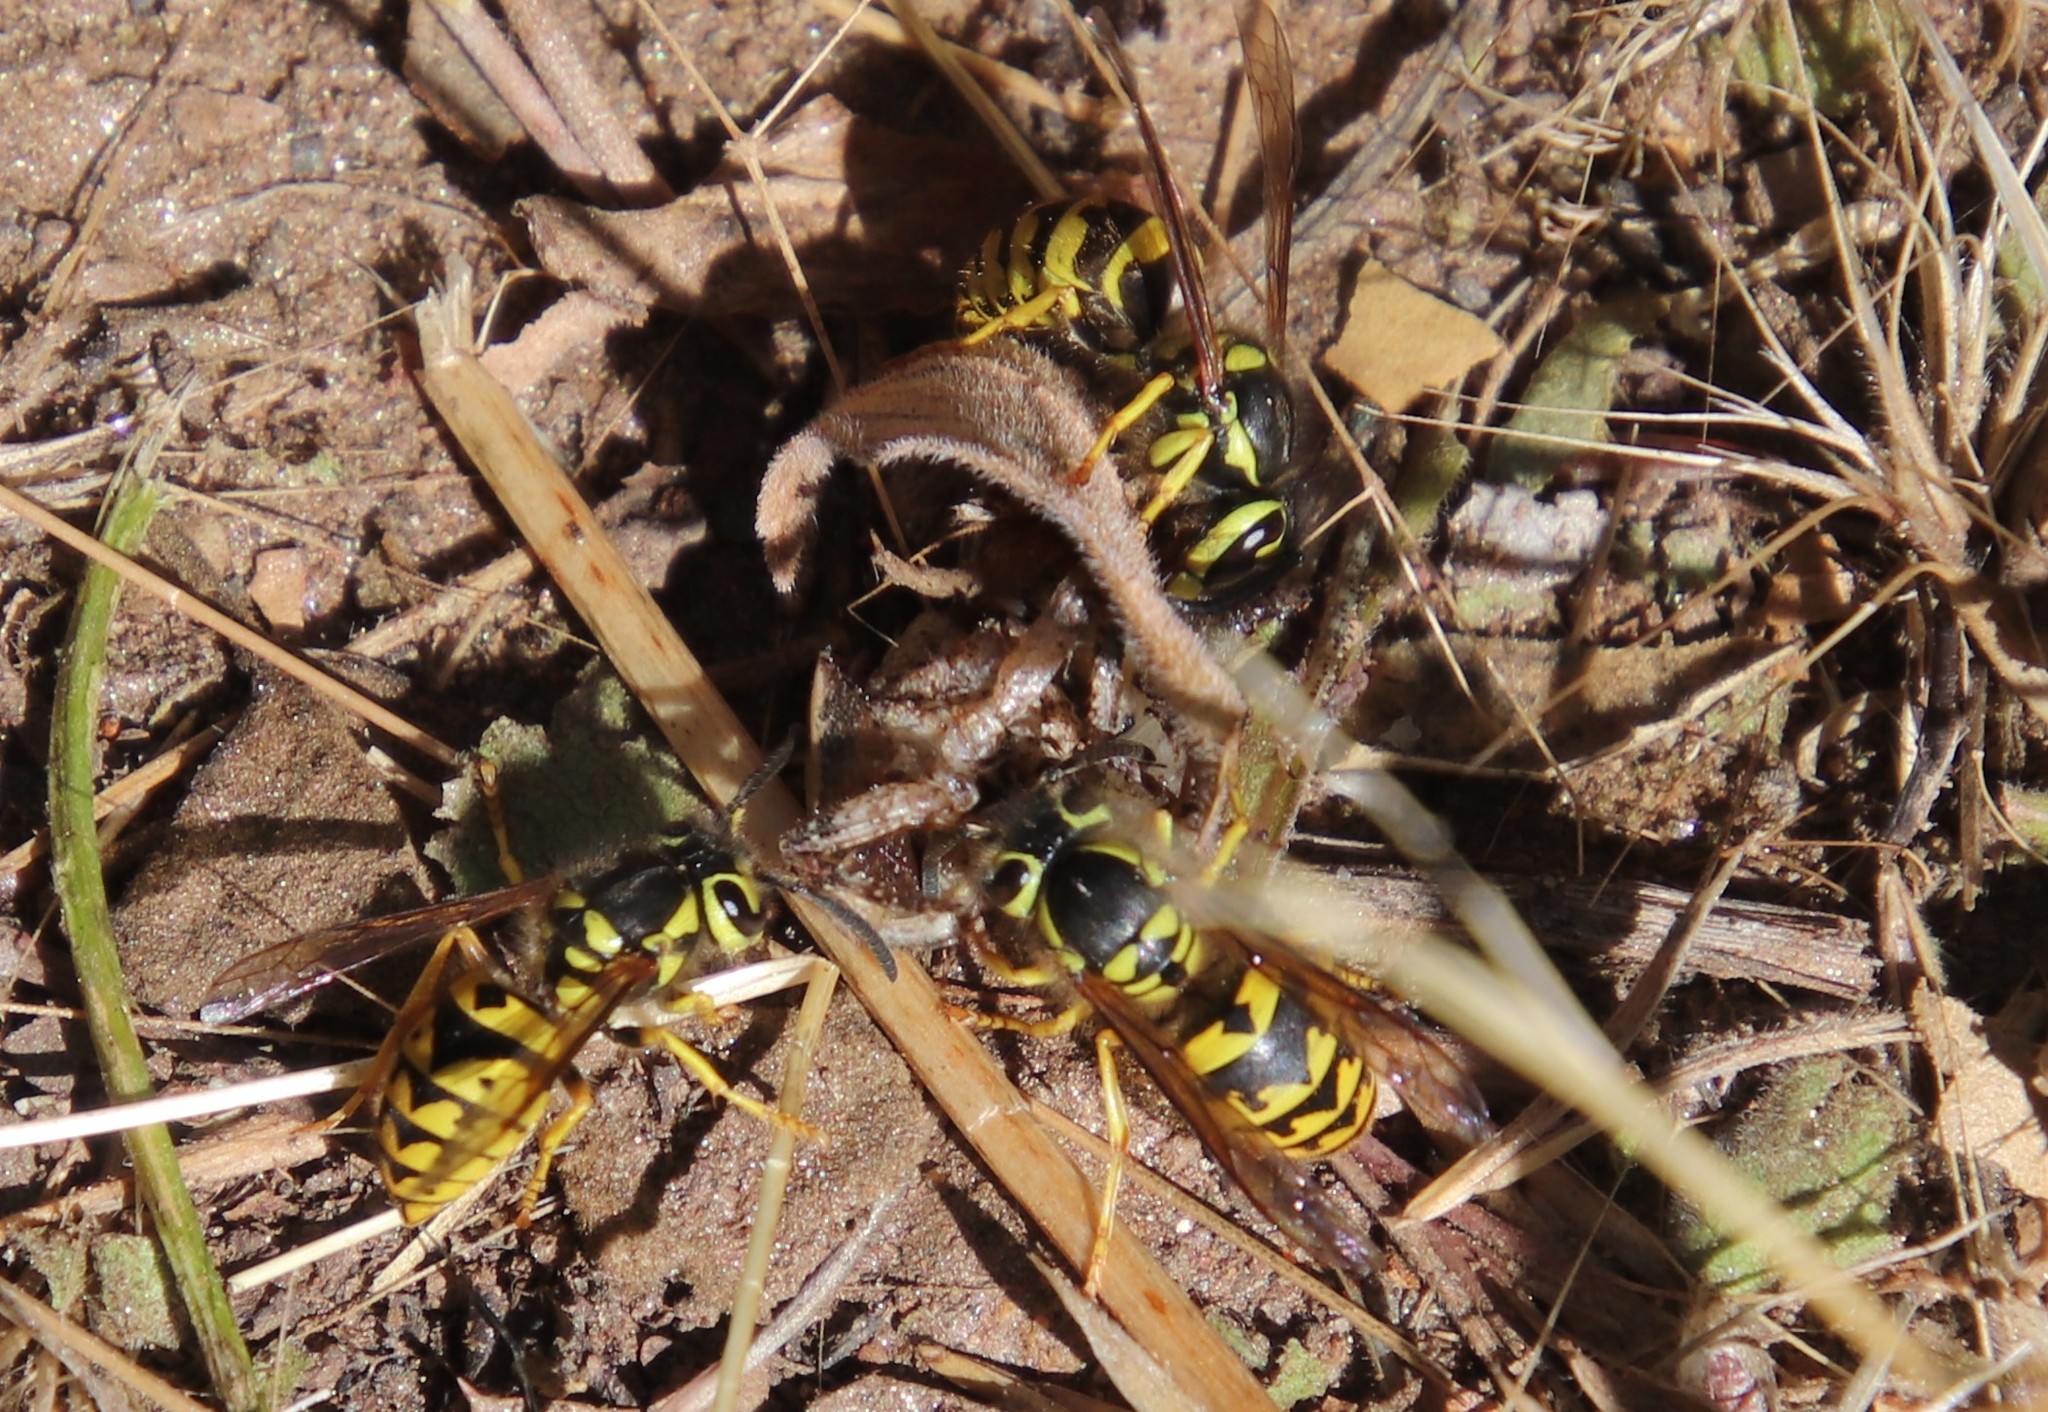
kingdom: Animalia
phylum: Arthropoda
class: Insecta
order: Hymenoptera
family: Vespidae
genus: Vespula
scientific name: Vespula pensylvanica
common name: Western yellowjacket
